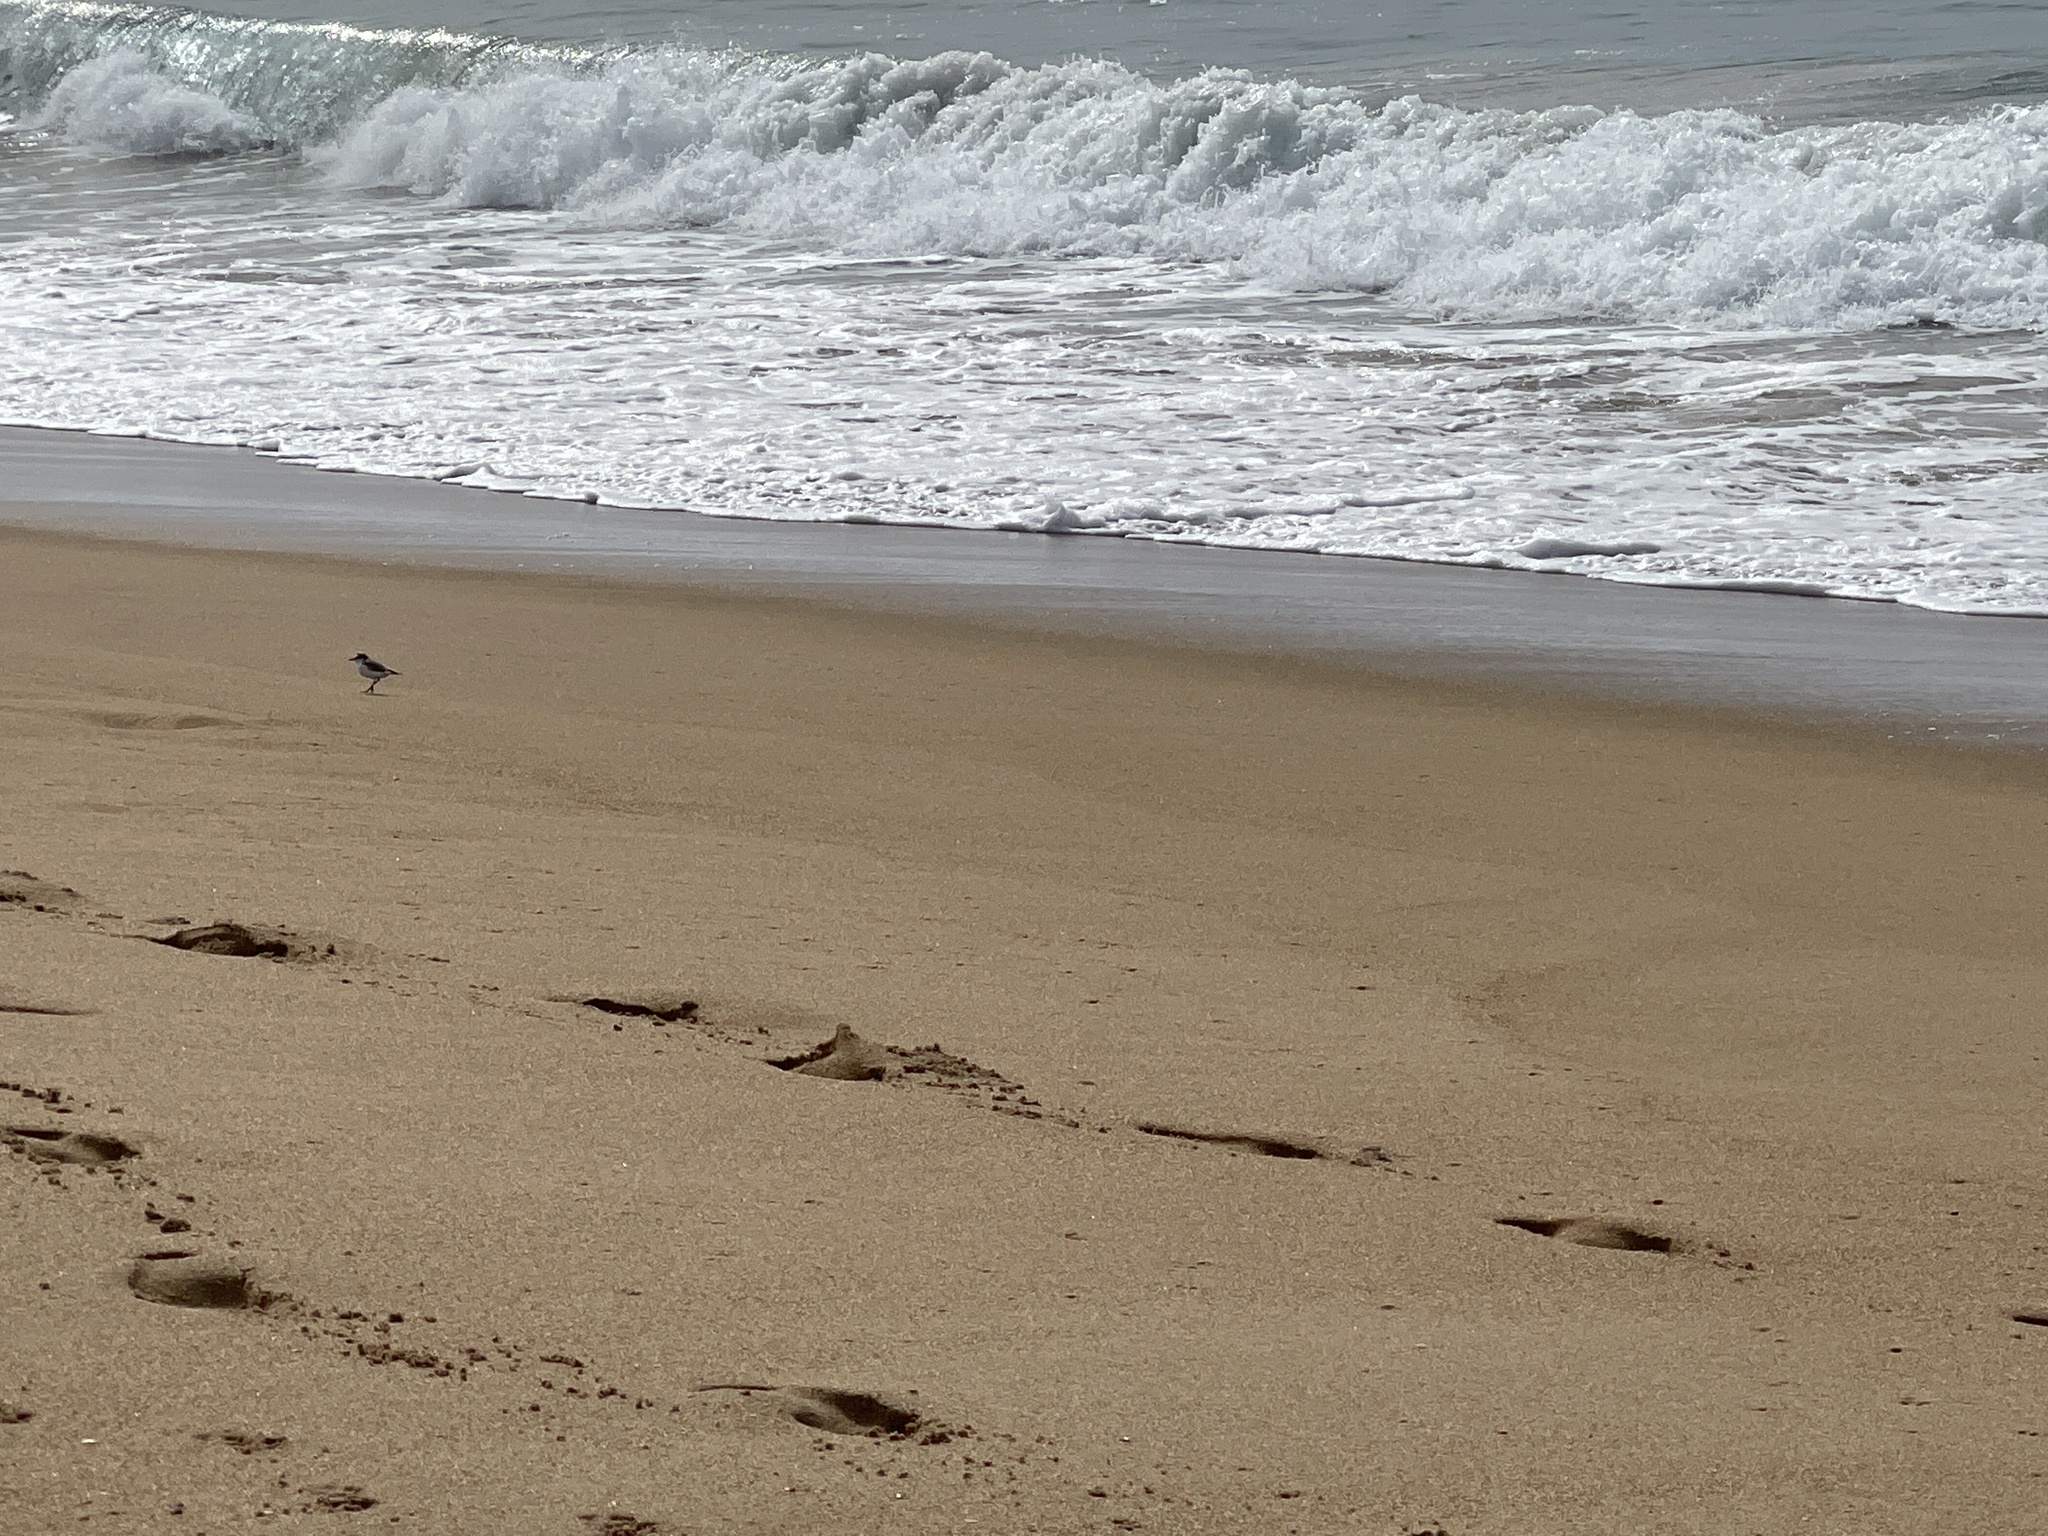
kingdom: Animalia
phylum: Chordata
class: Aves
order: Charadriiformes
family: Charadriidae
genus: Anarhynchus
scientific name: Anarhynchus
